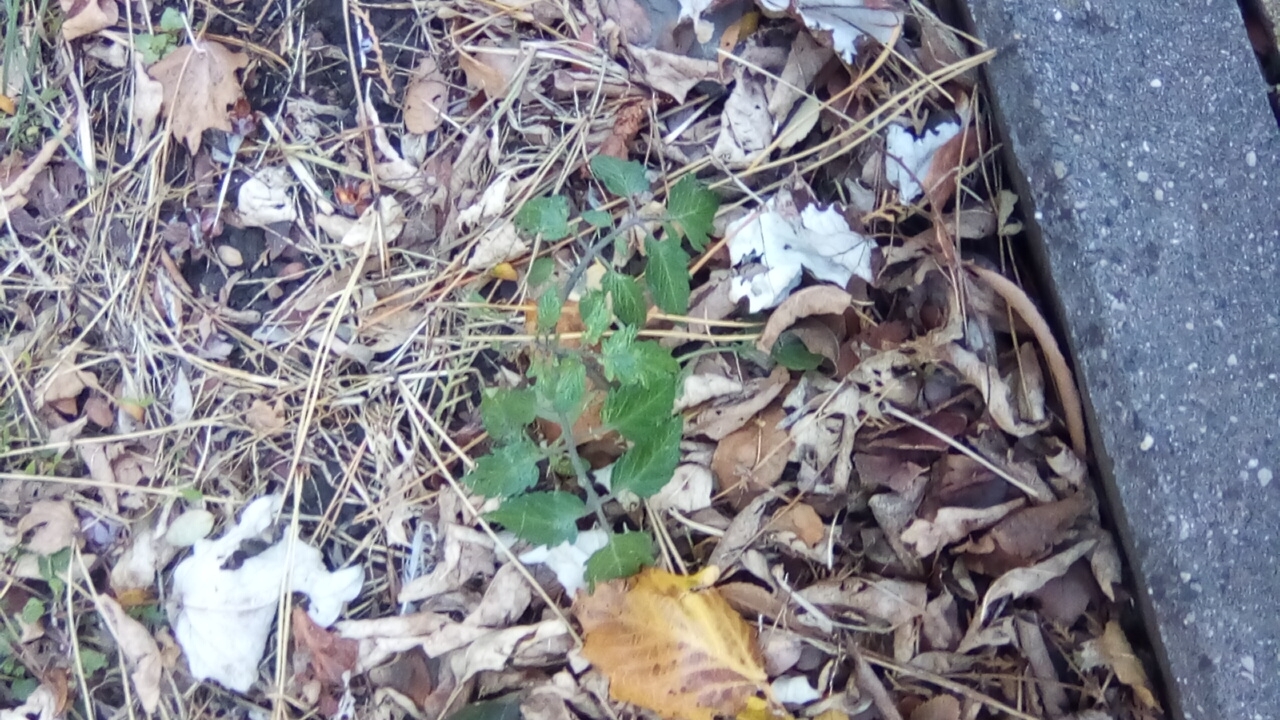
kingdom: Plantae
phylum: Tracheophyta
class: Magnoliopsida
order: Solanales
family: Solanaceae
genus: Solanum
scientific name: Solanum lycopersicum
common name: Garden tomato
